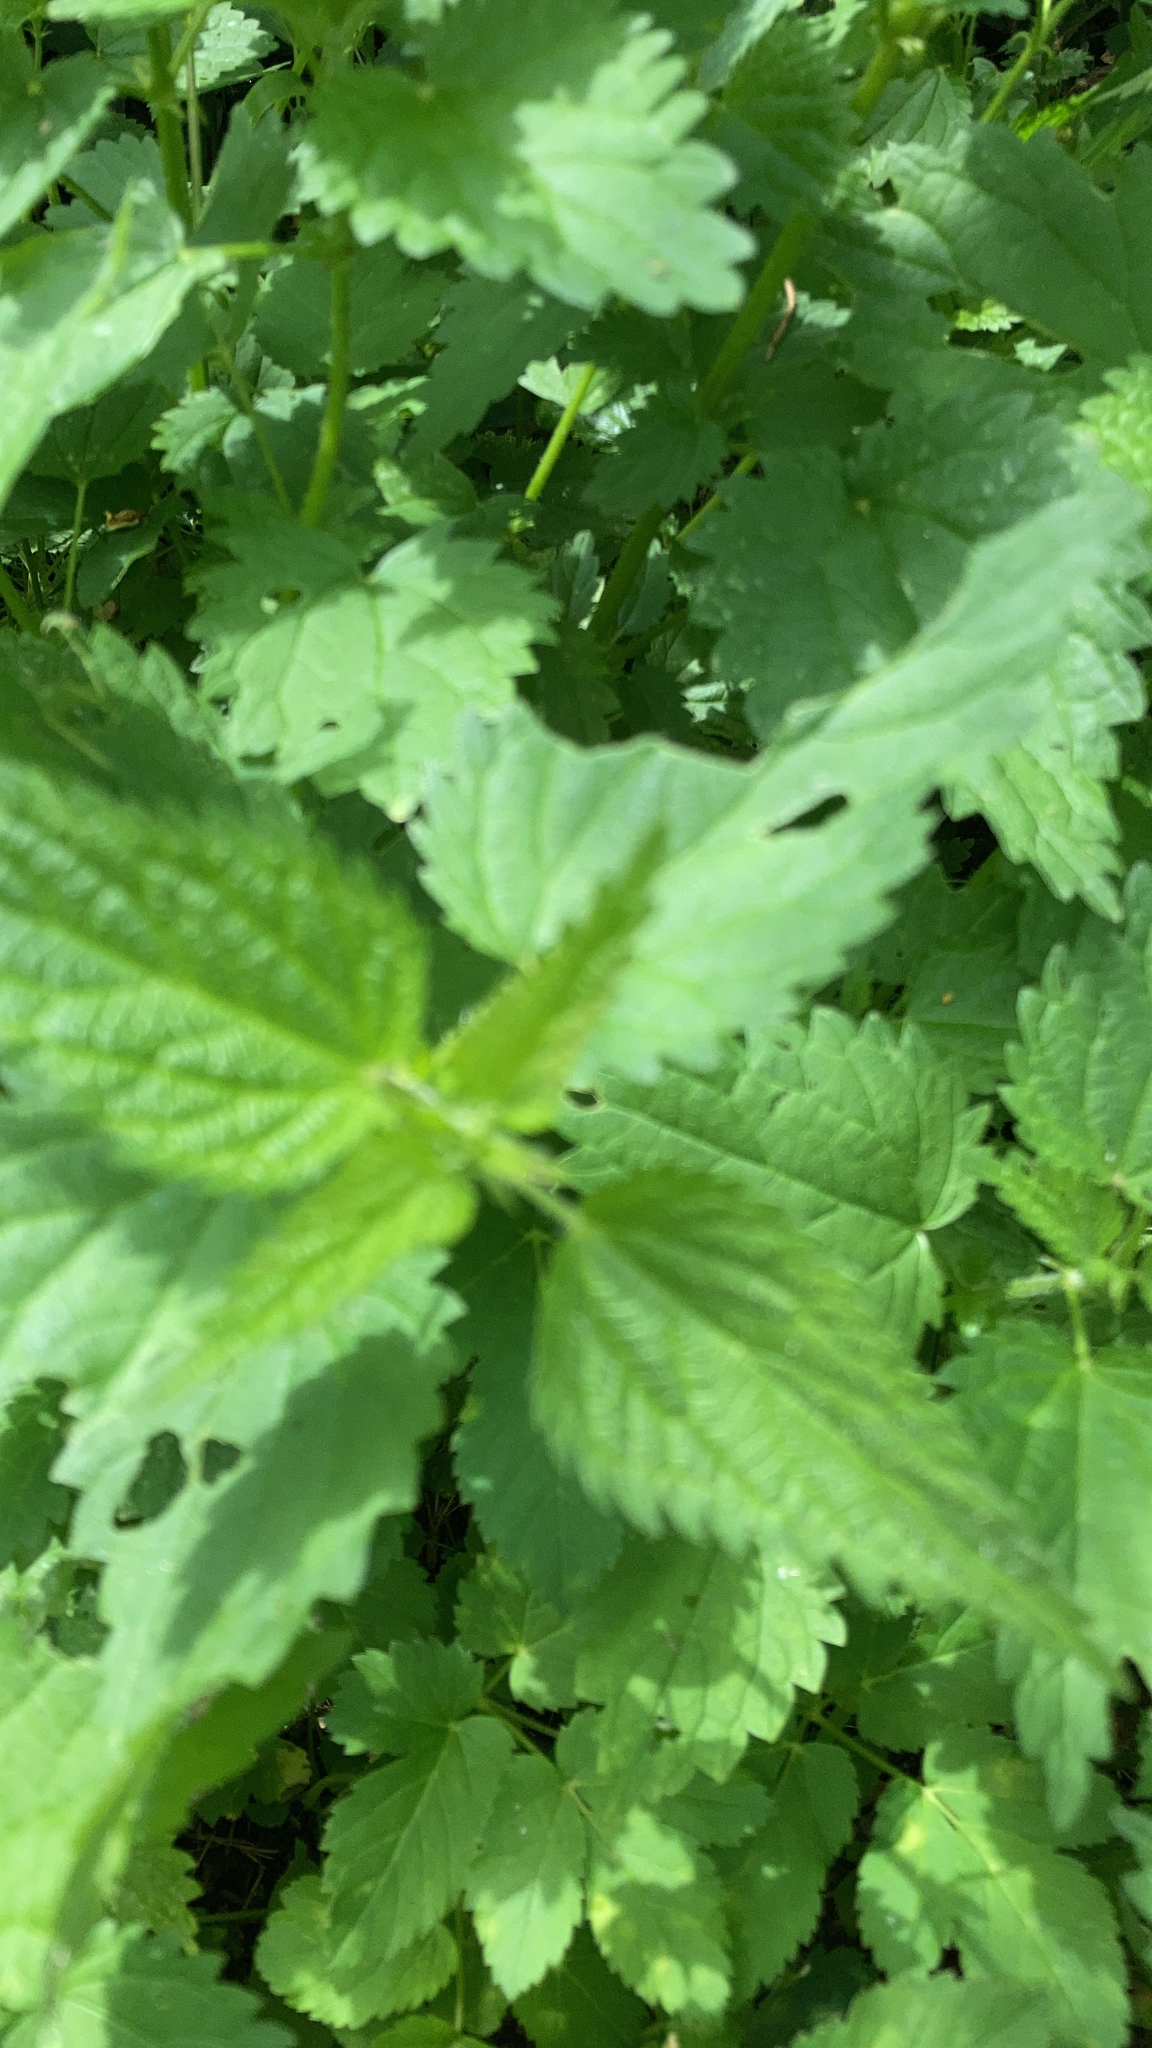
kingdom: Plantae
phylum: Tracheophyta
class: Magnoliopsida
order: Rosales
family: Urticaceae
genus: Urtica
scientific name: Urtica dioica
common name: Common nettle
